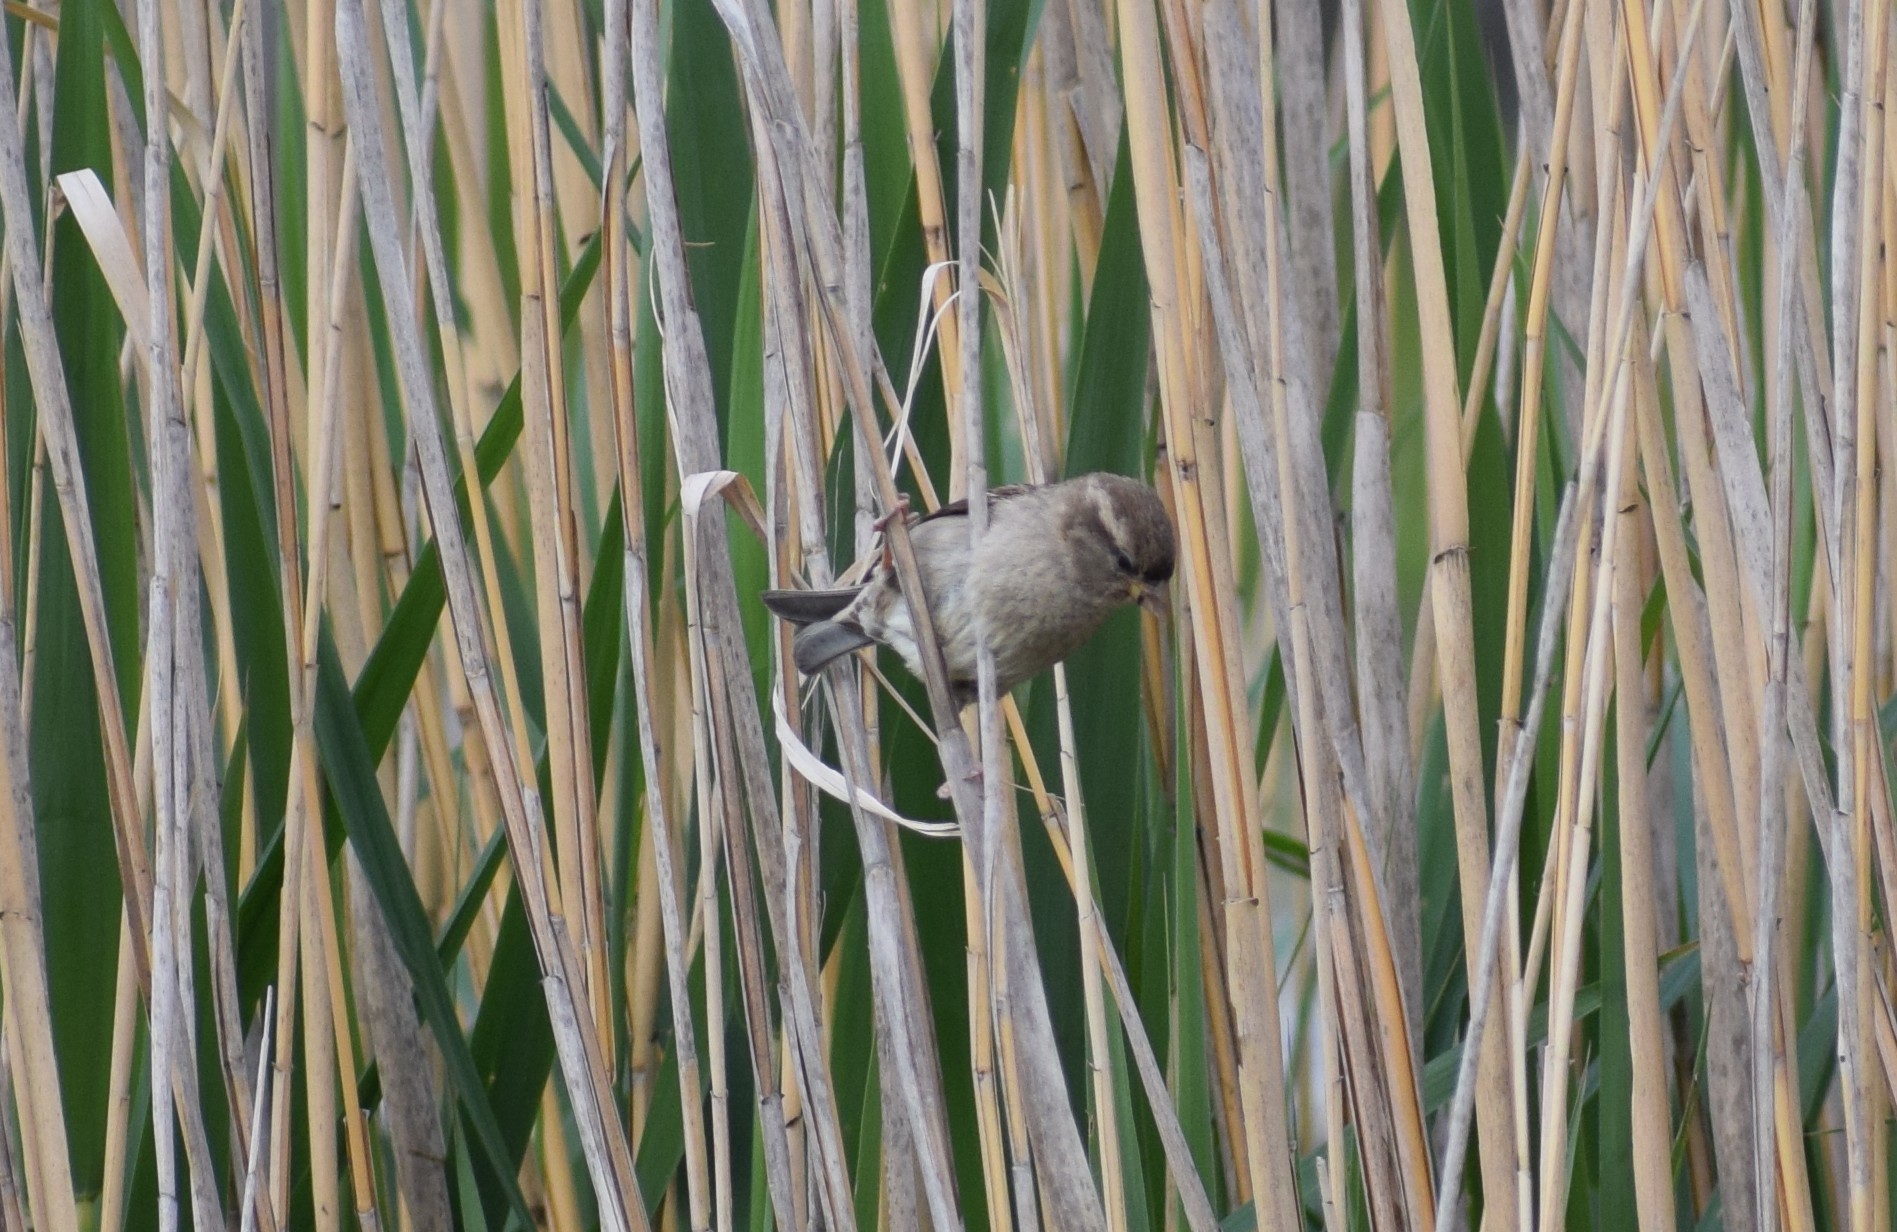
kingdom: Animalia
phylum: Chordata
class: Aves
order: Passeriformes
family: Passeridae
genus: Passer
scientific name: Passer domesticus
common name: House sparrow
